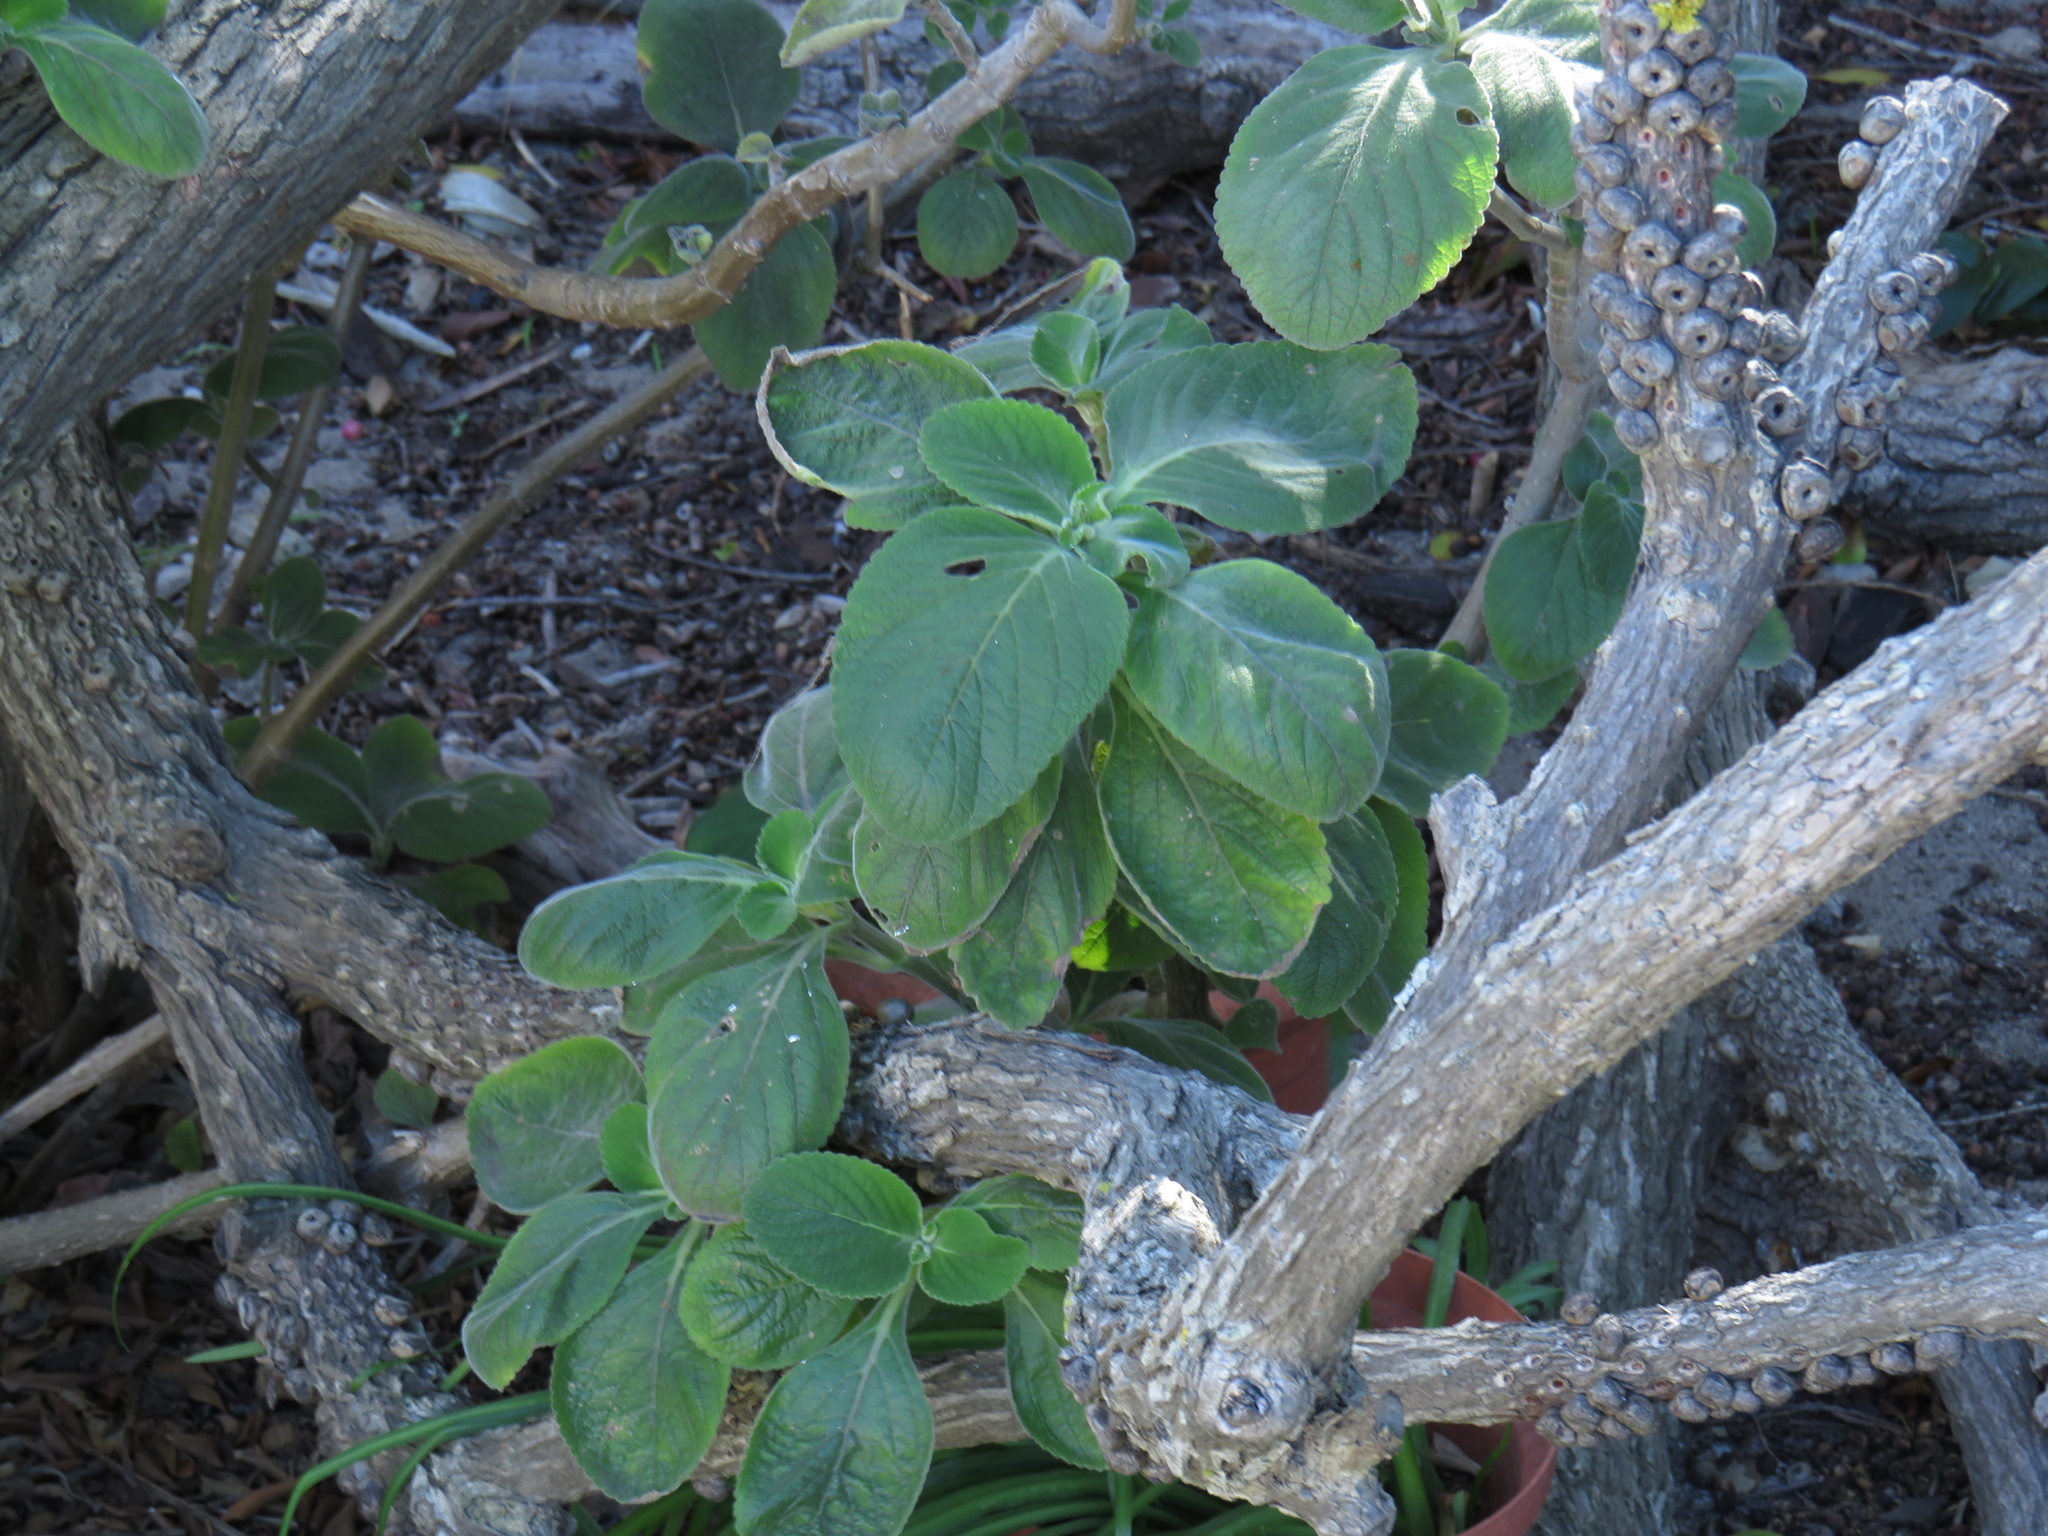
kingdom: Plantae
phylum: Tracheophyta
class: Magnoliopsida
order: Lamiales
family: Lamiaceae
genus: Coleus
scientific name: Coleus barbatus
